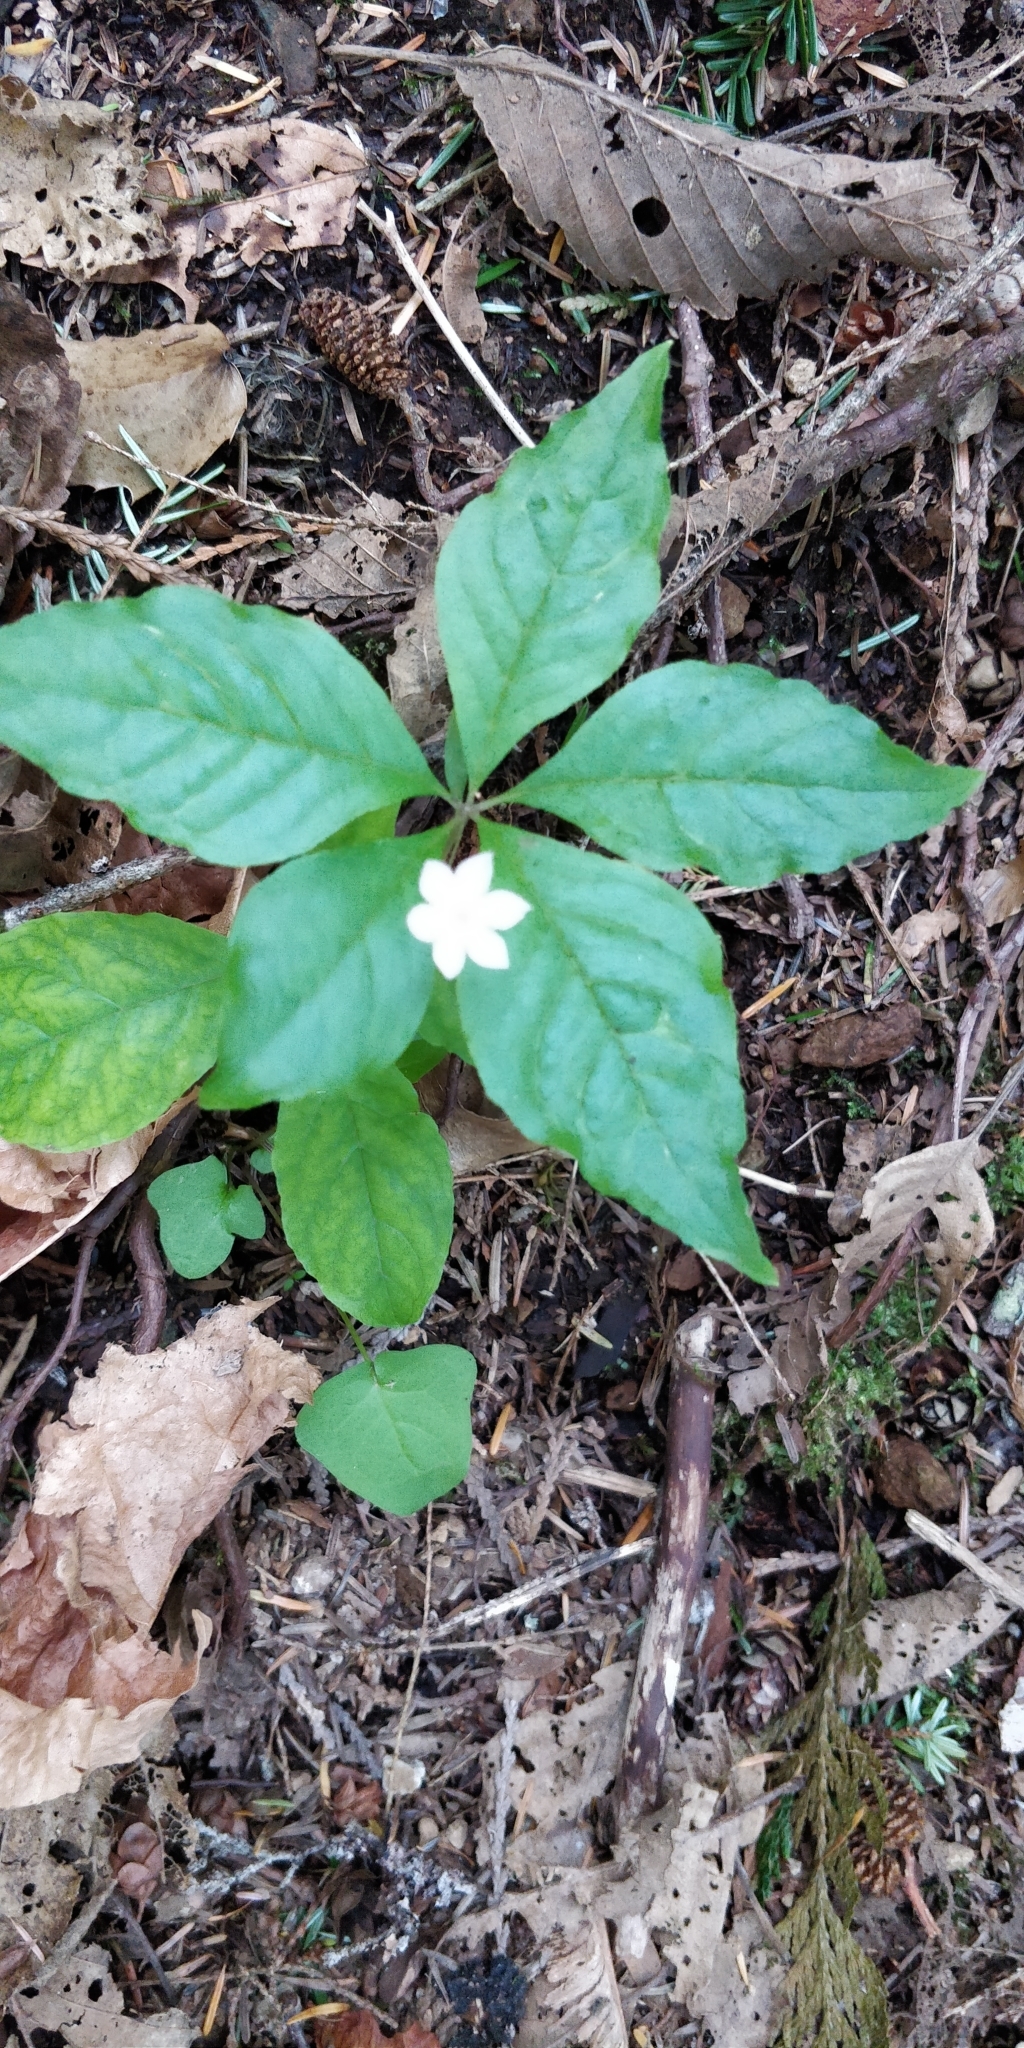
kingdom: Plantae
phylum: Tracheophyta
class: Magnoliopsida
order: Ericales
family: Primulaceae
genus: Lysimachia
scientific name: Lysimachia latifolia
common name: Pacific starflower
